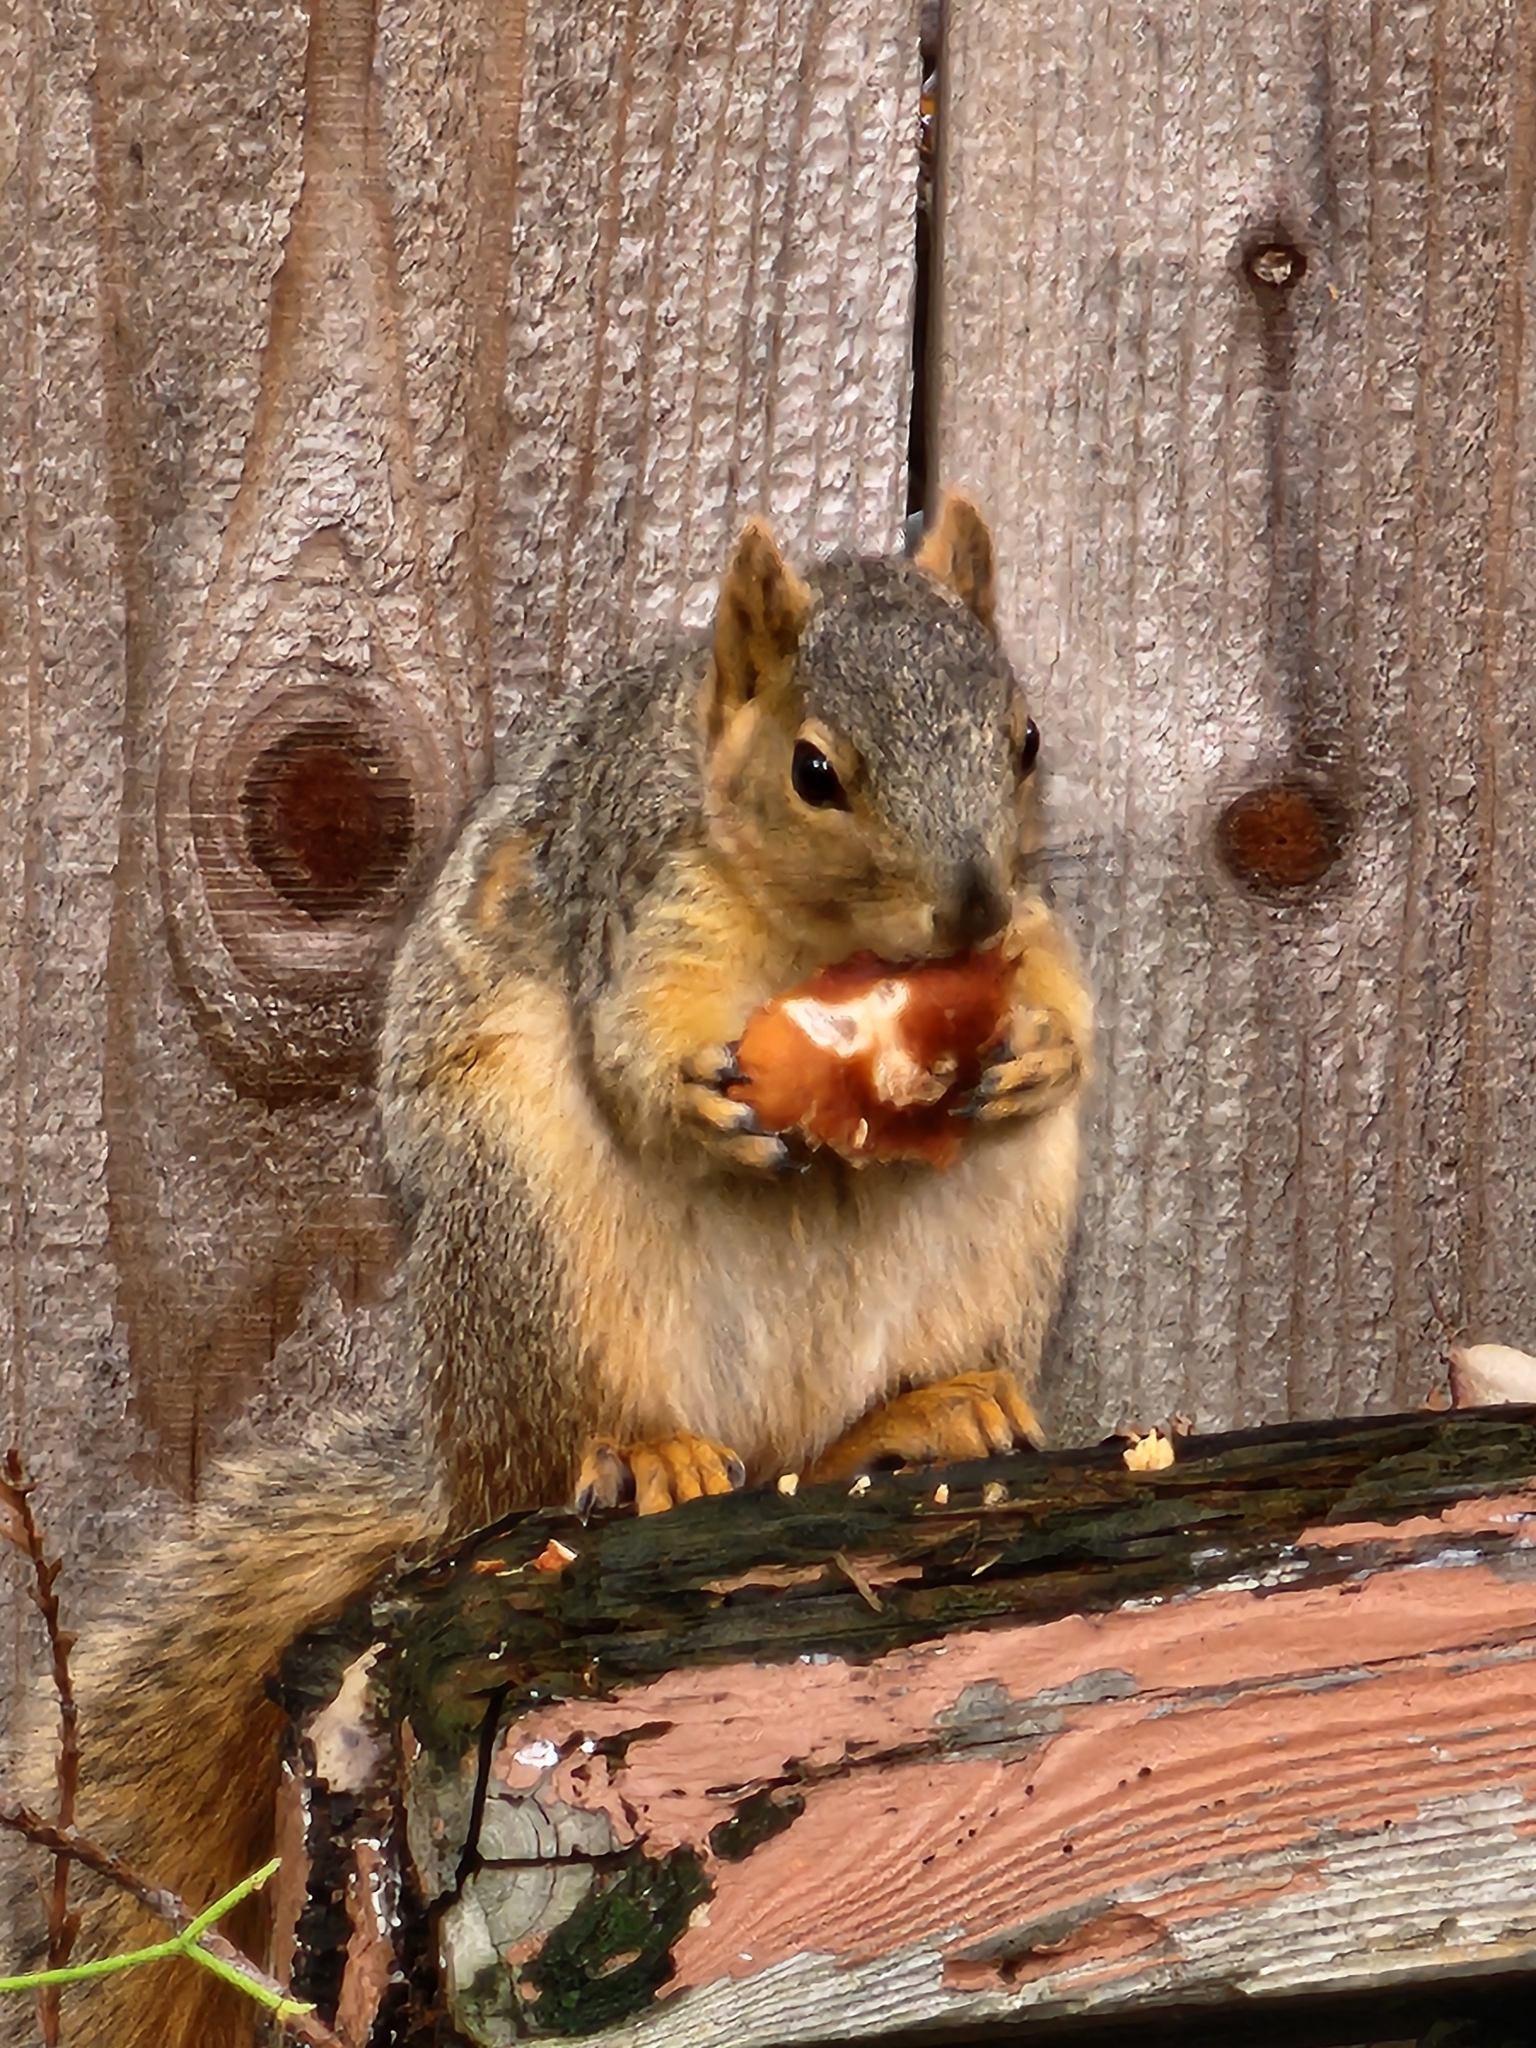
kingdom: Animalia
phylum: Chordata
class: Mammalia
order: Rodentia
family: Sciuridae
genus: Sciurus
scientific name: Sciurus niger
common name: Fox squirrel
